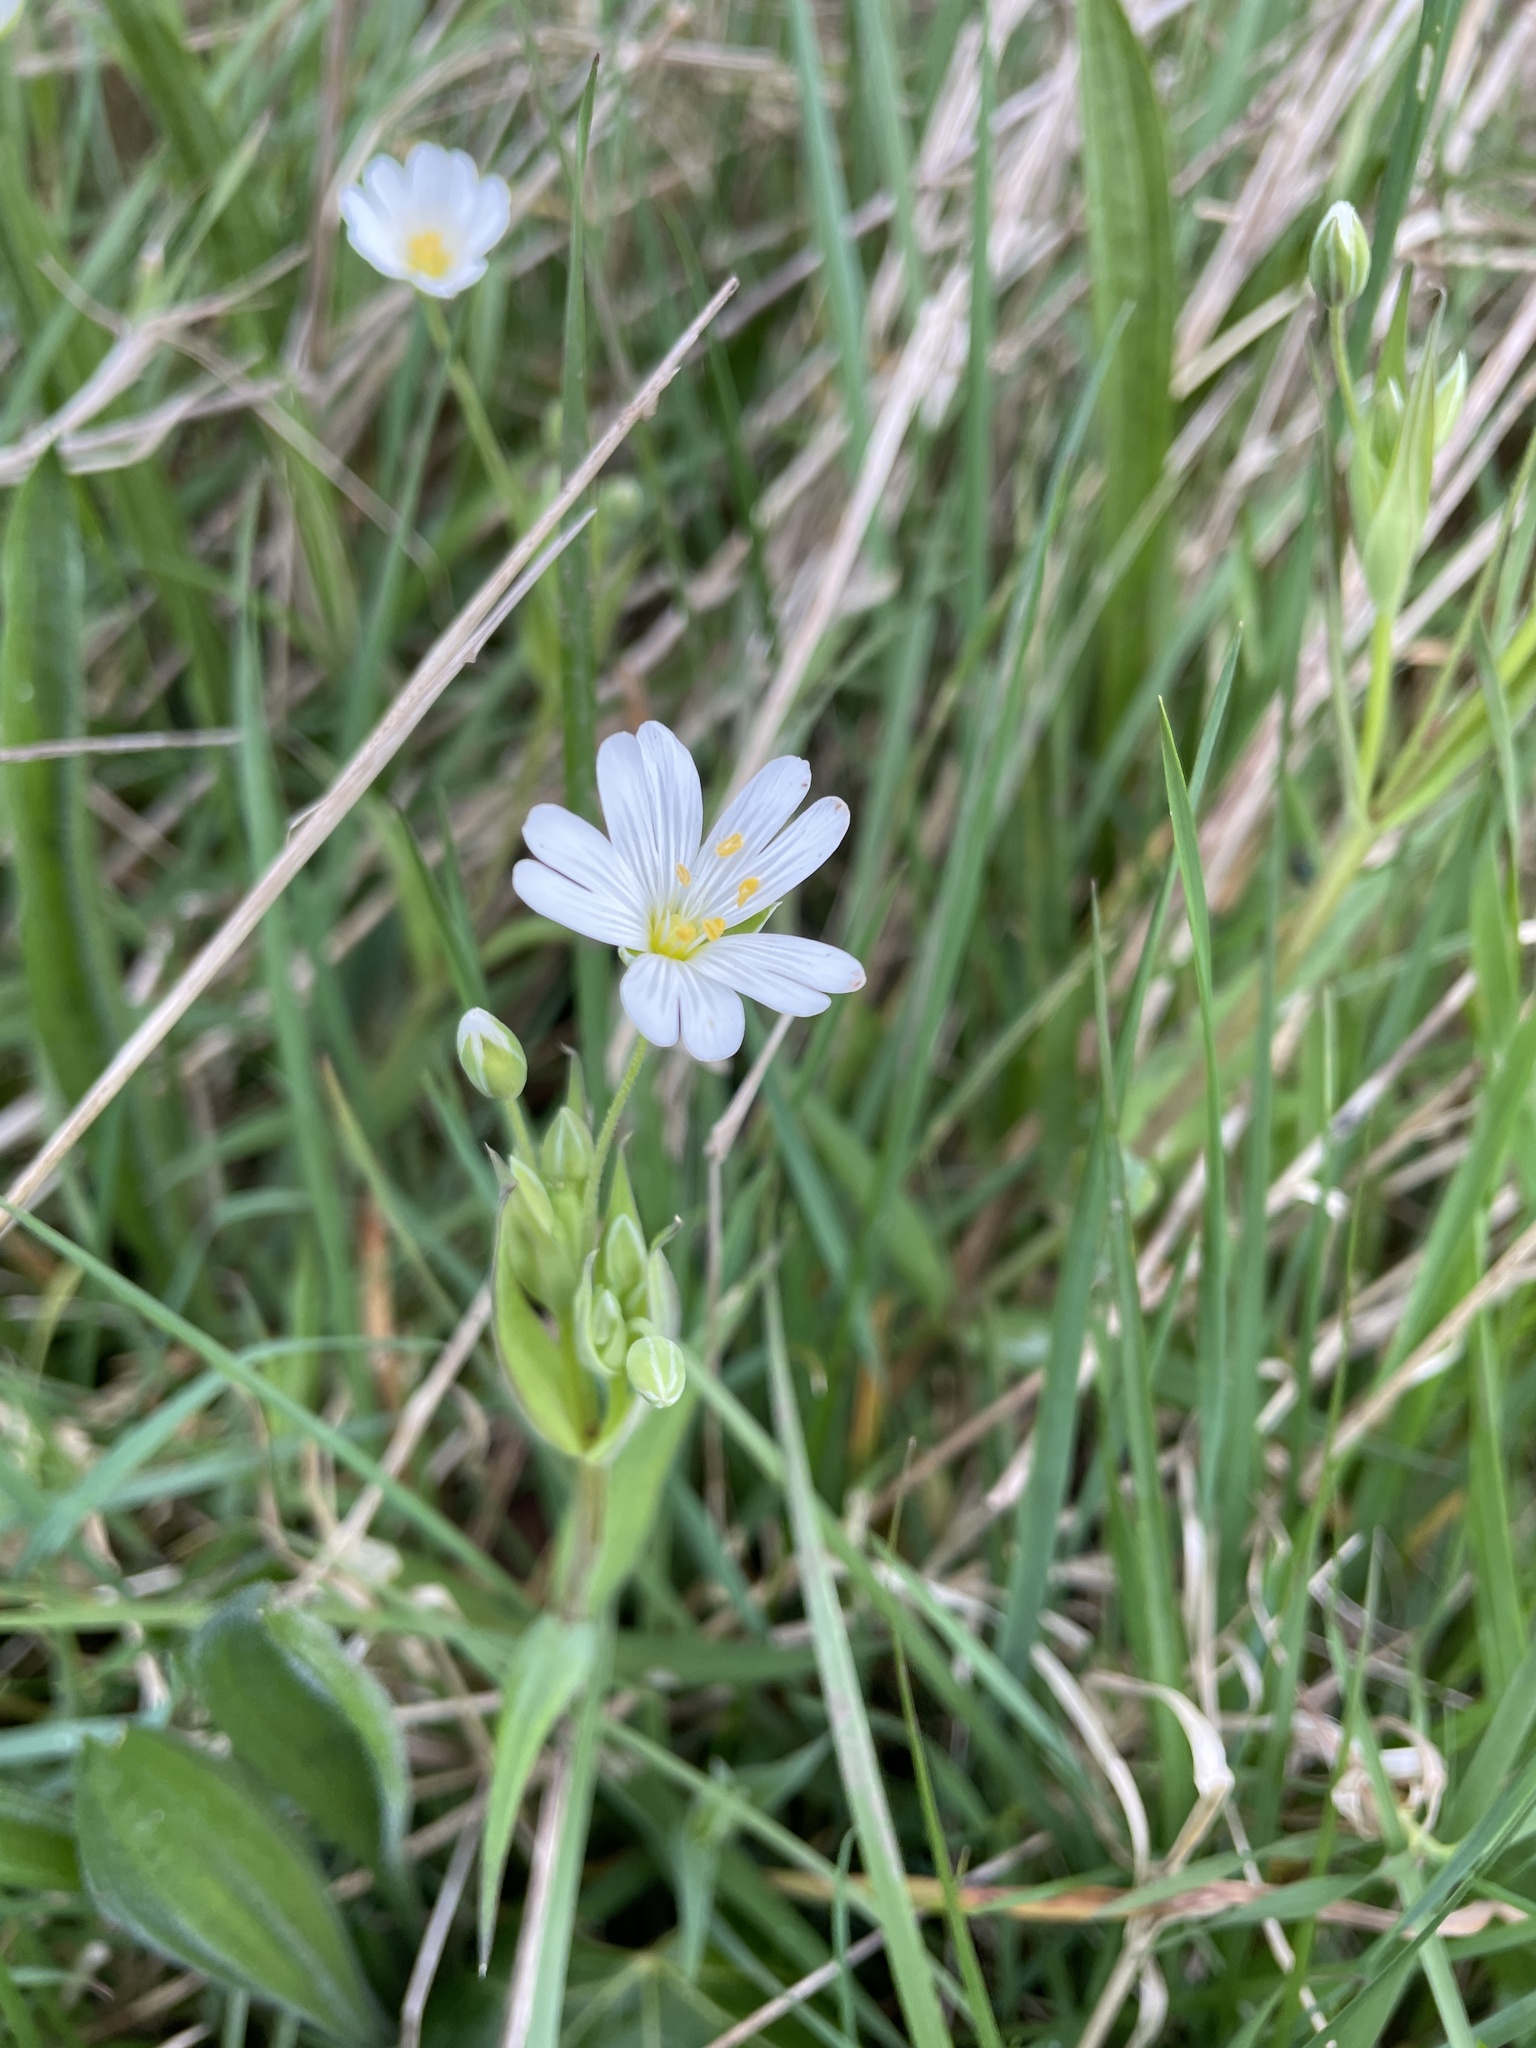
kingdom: Plantae
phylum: Tracheophyta
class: Magnoliopsida
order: Caryophyllales
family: Caryophyllaceae
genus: Rabelera
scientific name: Rabelera holostea
